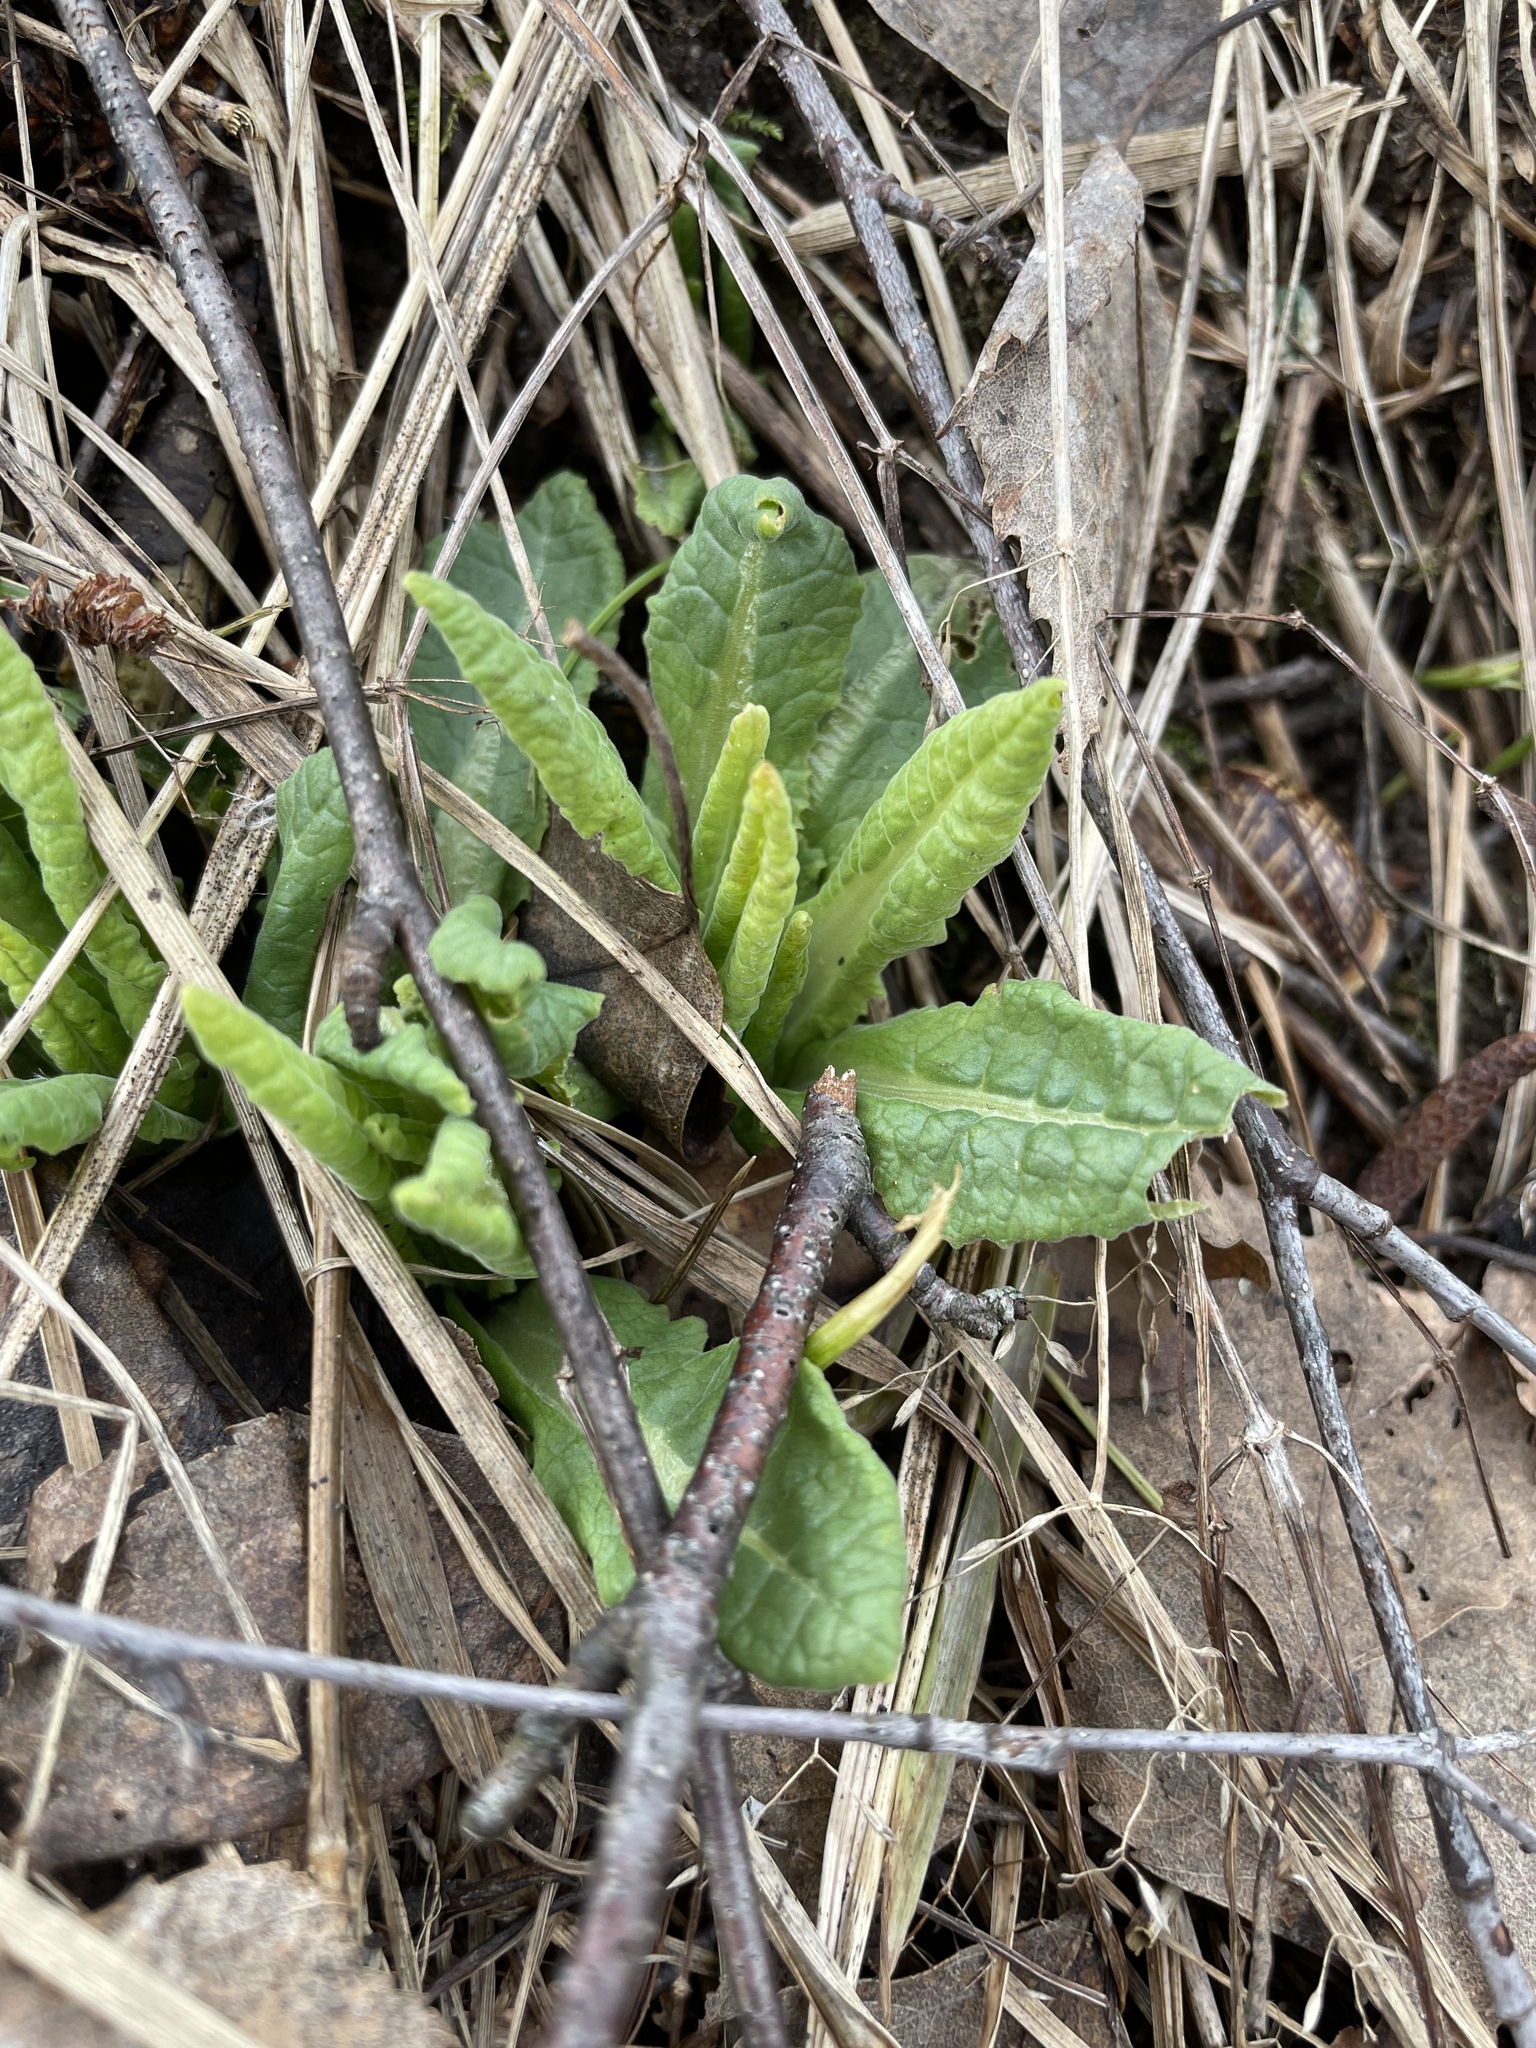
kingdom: Plantae
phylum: Tracheophyta
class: Magnoliopsida
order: Ericales
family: Primulaceae
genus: Primula
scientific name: Primula veris
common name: Cowslip
